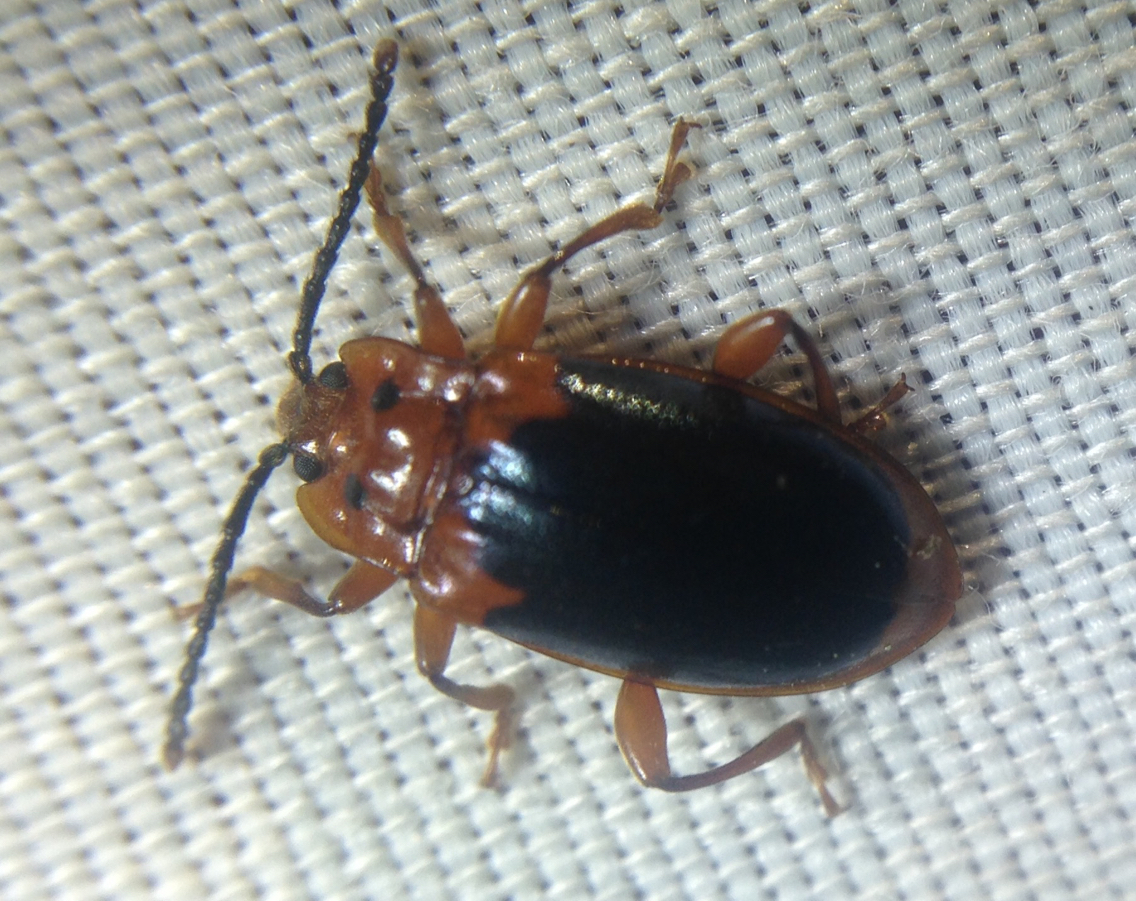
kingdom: Animalia
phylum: Arthropoda
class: Insecta
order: Coleoptera
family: Endomychidae
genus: Aphorista
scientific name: Aphorista laeta
